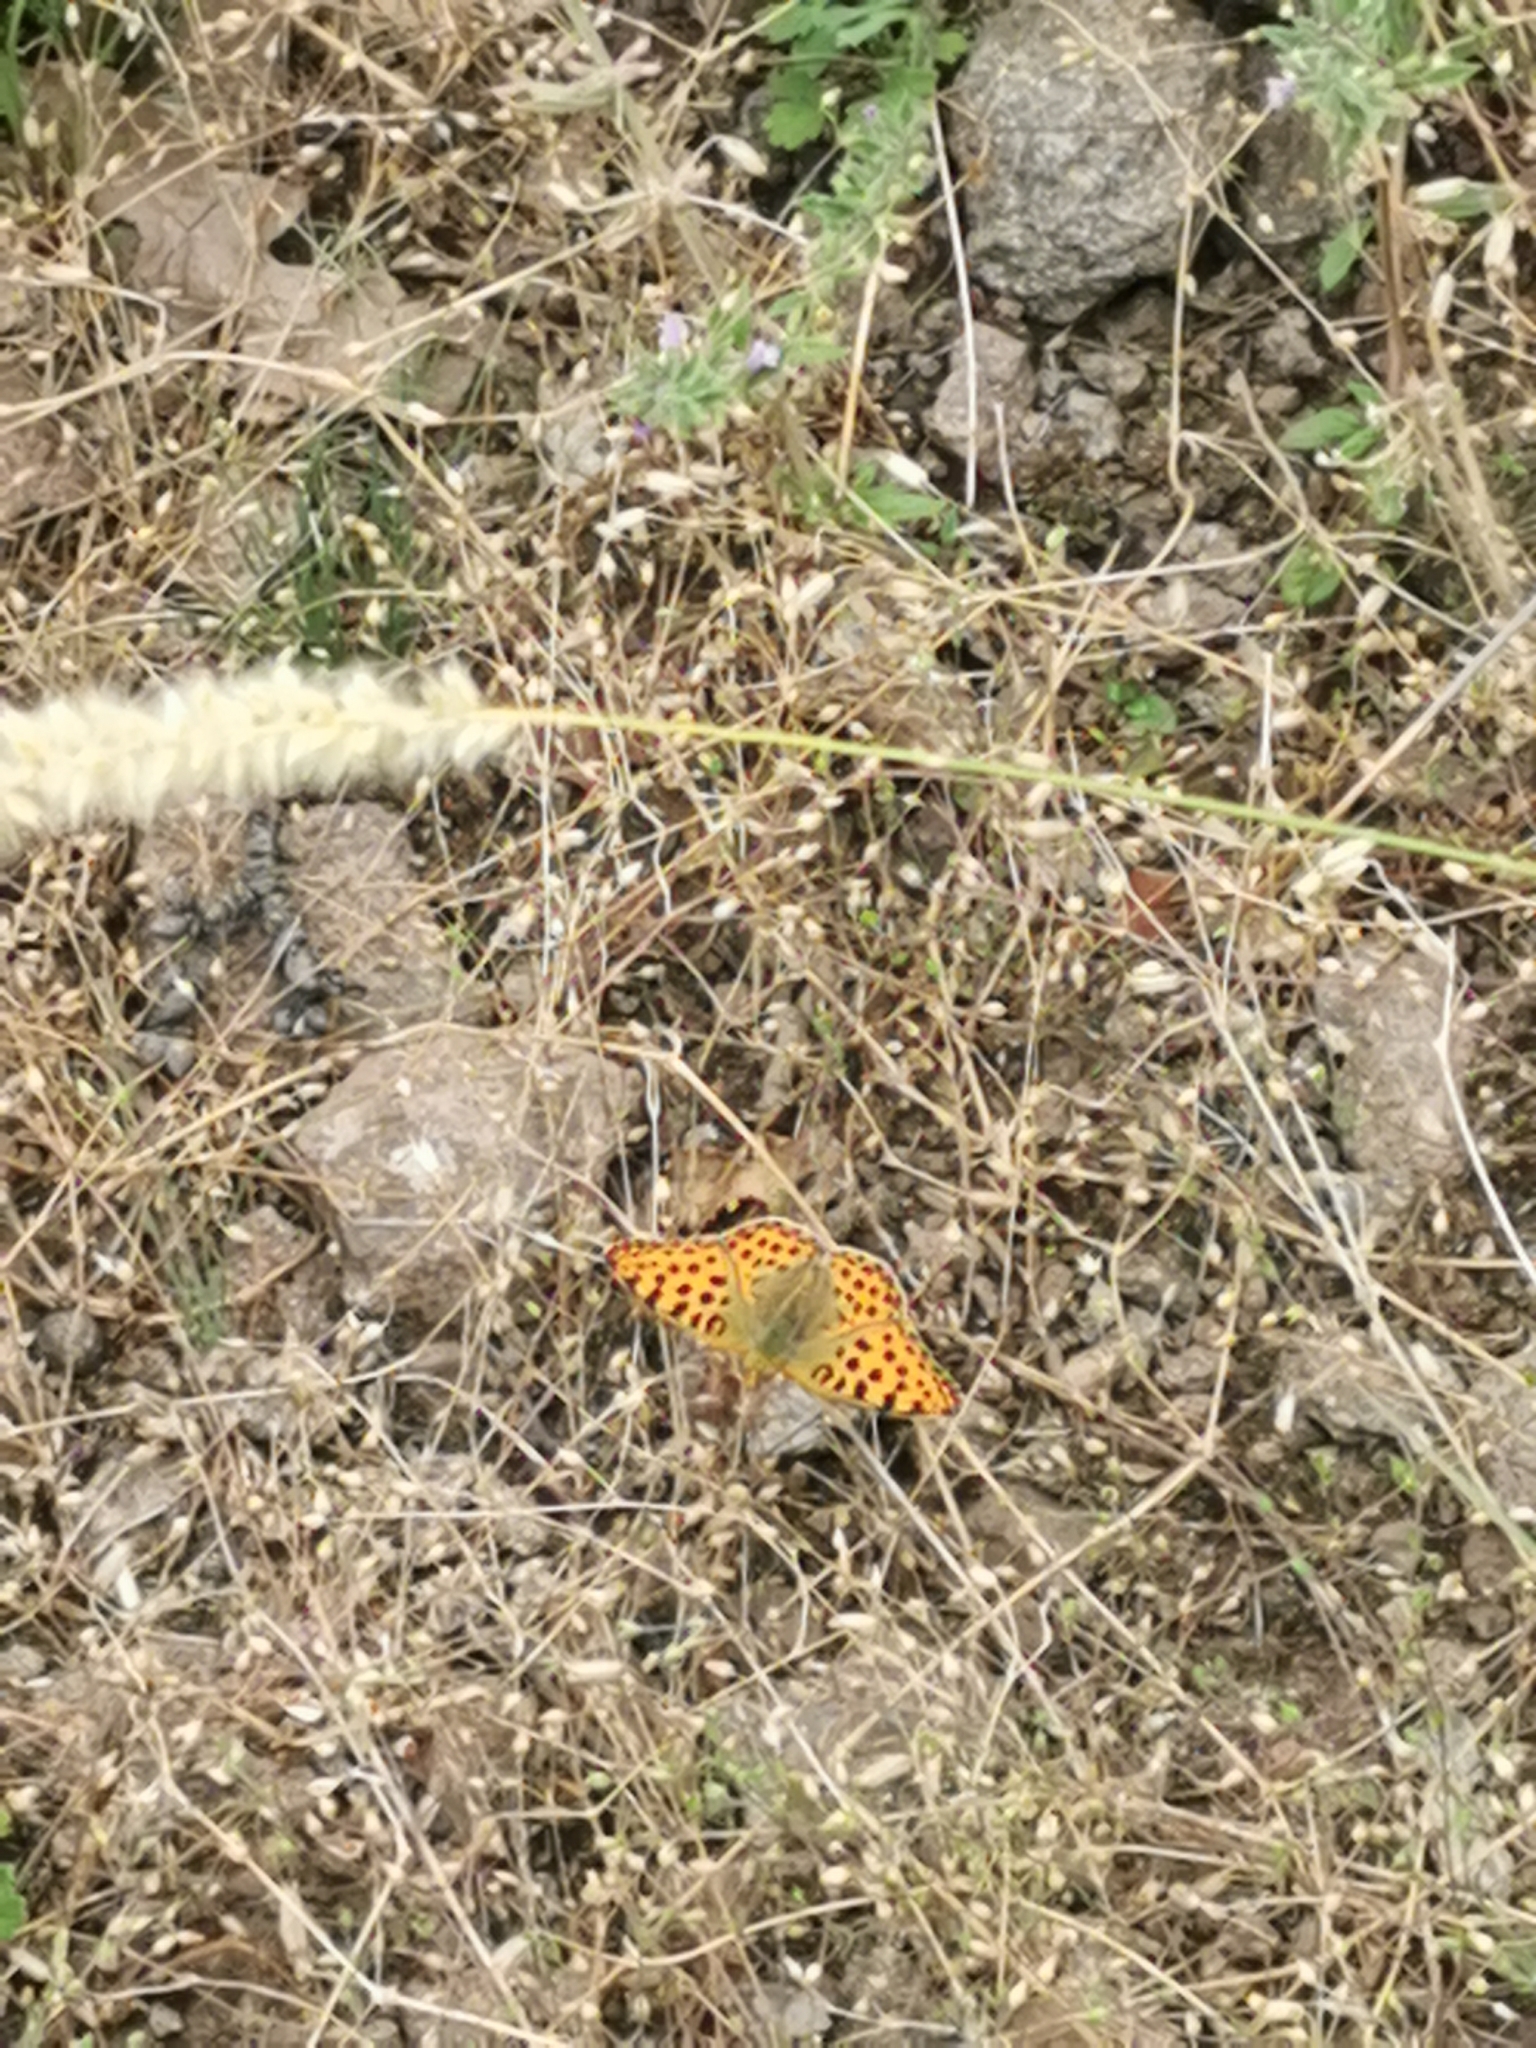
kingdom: Animalia
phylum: Arthropoda
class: Insecta
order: Lepidoptera
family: Nymphalidae
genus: Issoria
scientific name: Issoria lathonia
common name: Queen of spain fritillary
